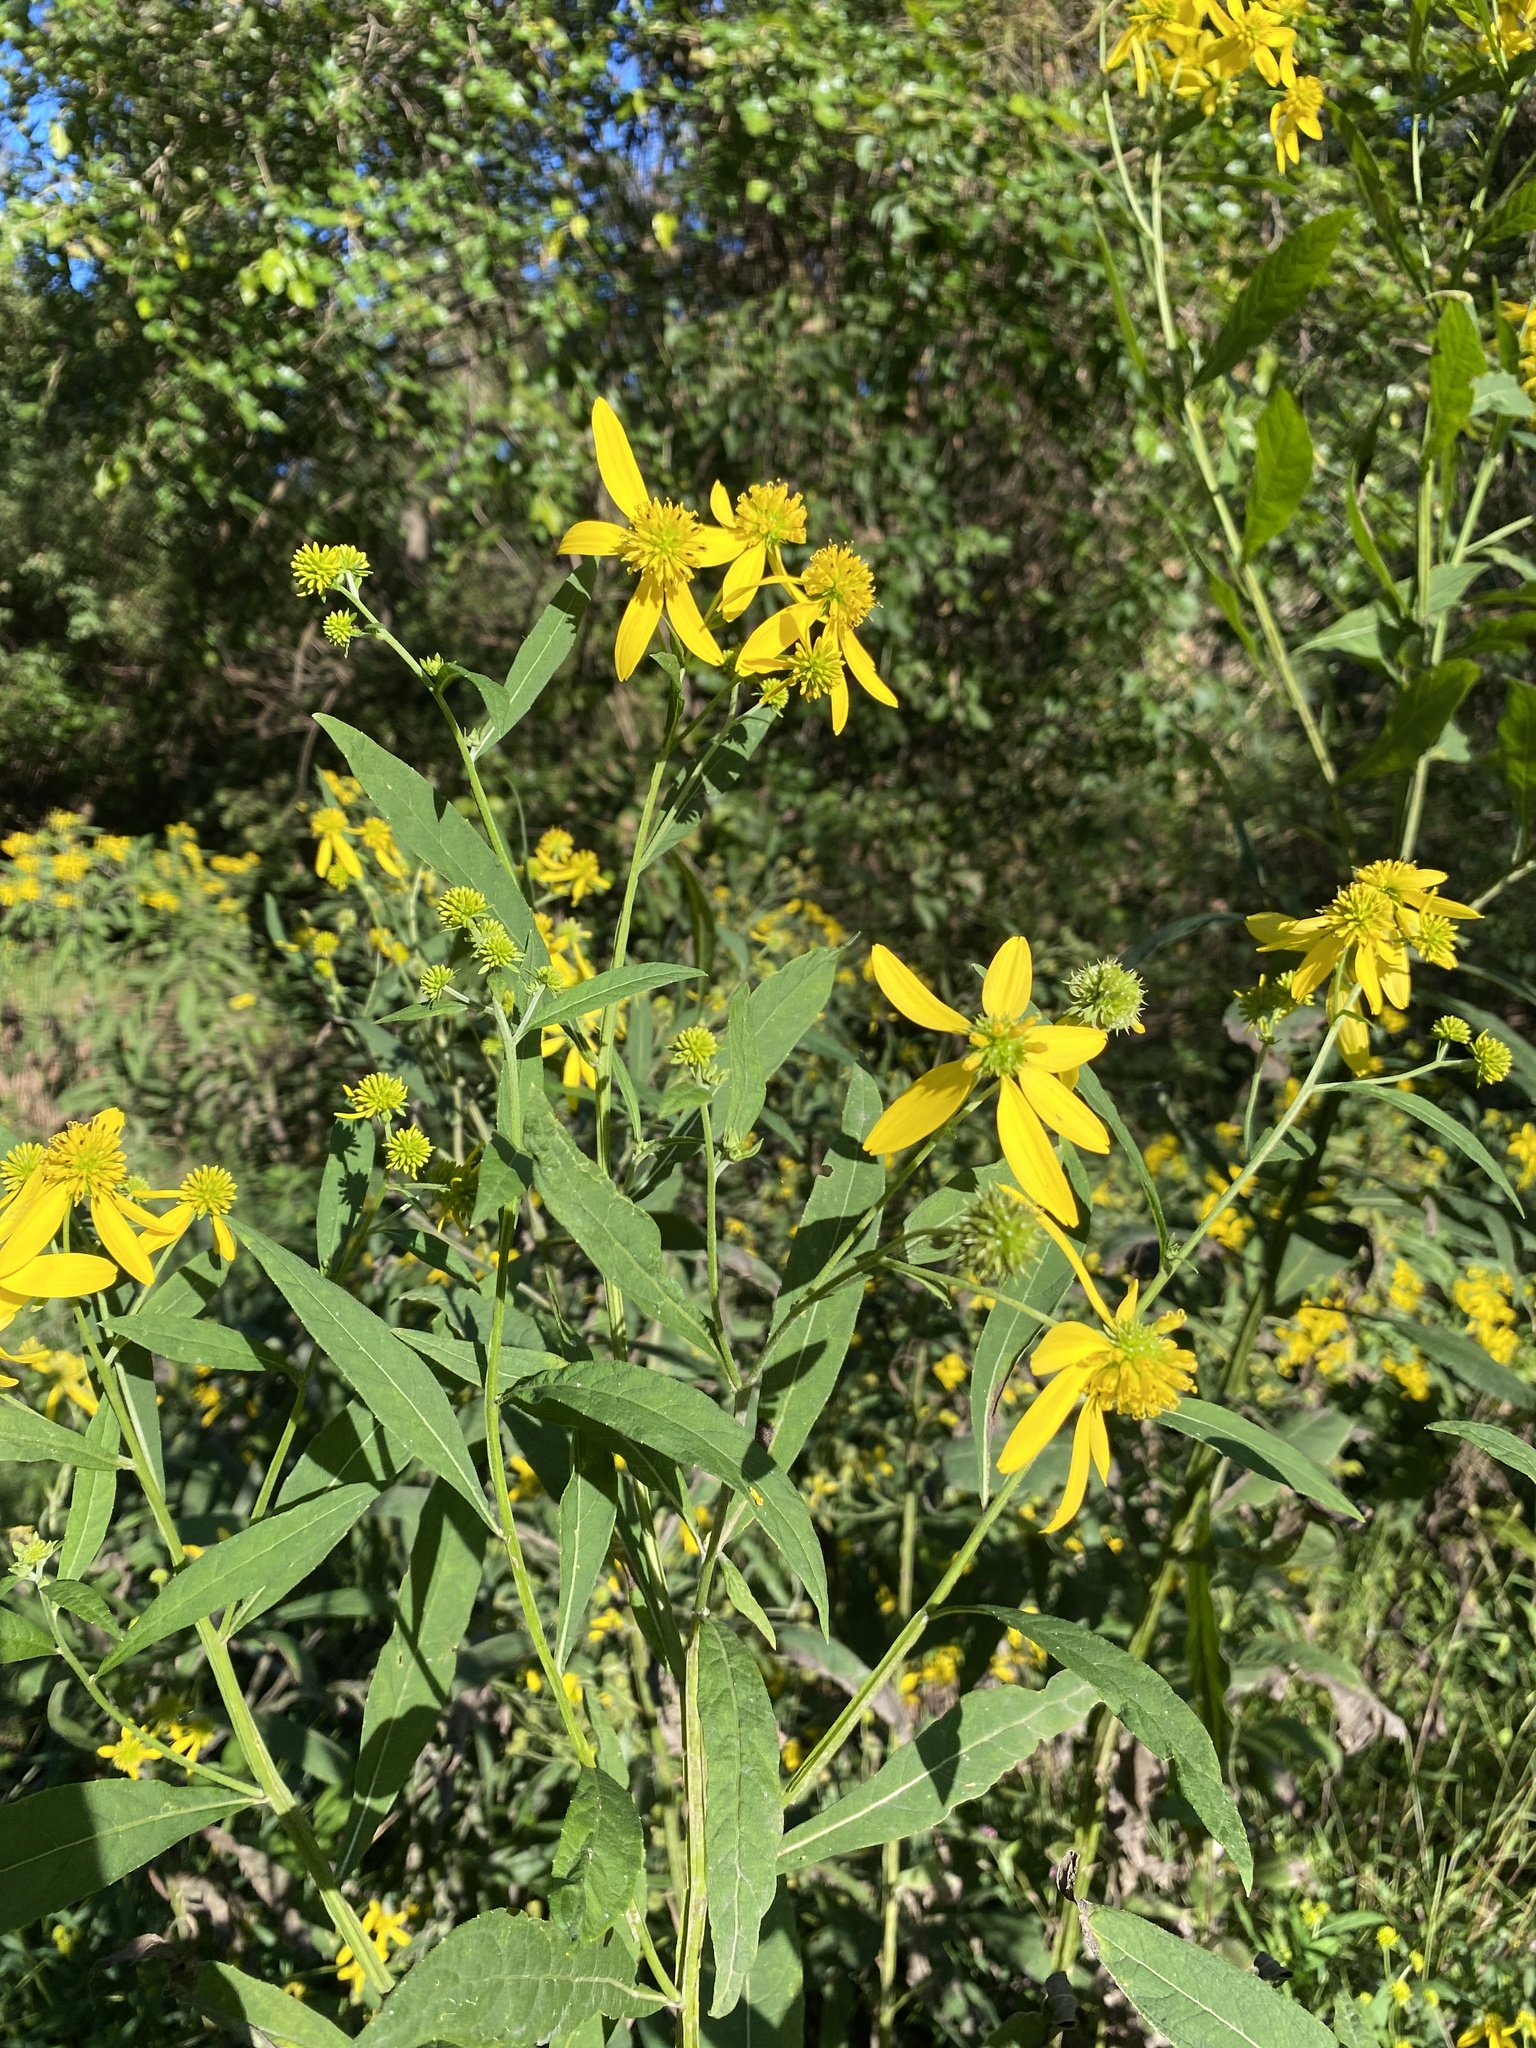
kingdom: Plantae
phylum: Tracheophyta
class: Magnoliopsida
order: Asterales
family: Asteraceae
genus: Verbesina
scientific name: Verbesina alternifolia
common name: Wingstem
